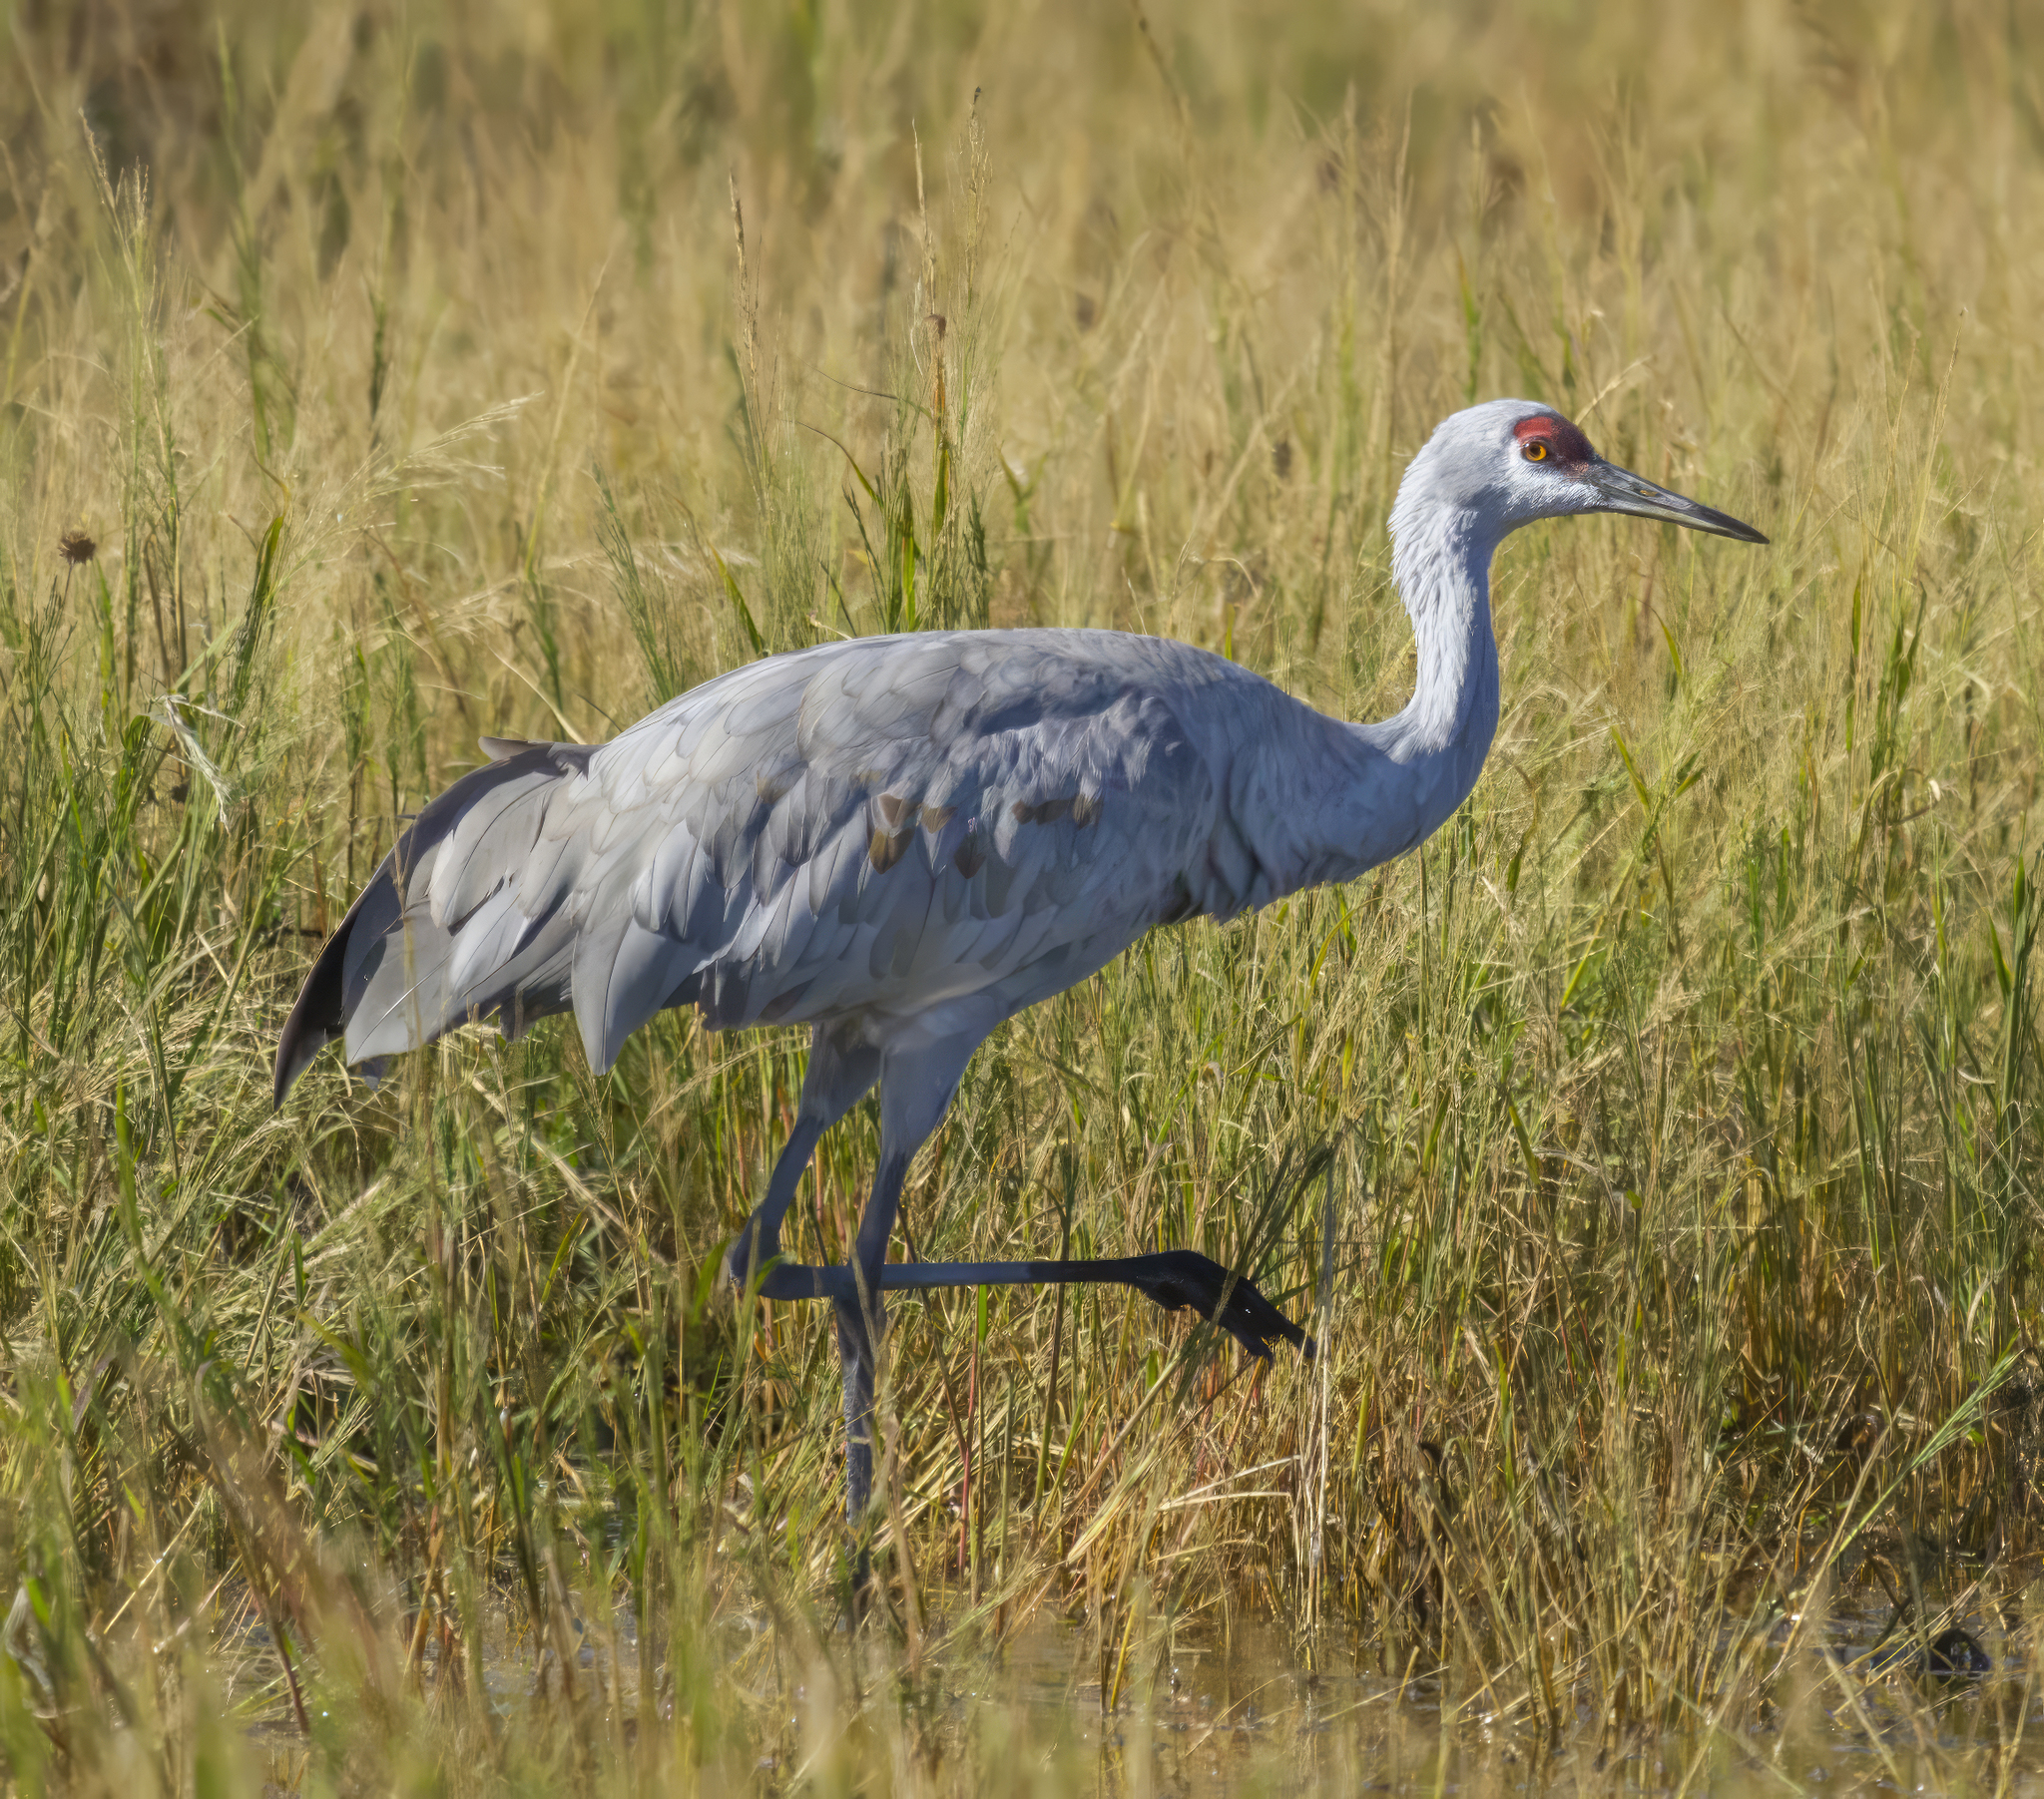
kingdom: Animalia
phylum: Chordata
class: Aves
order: Gruiformes
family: Gruidae
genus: Grus
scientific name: Grus canadensis
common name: Sandhill crane
